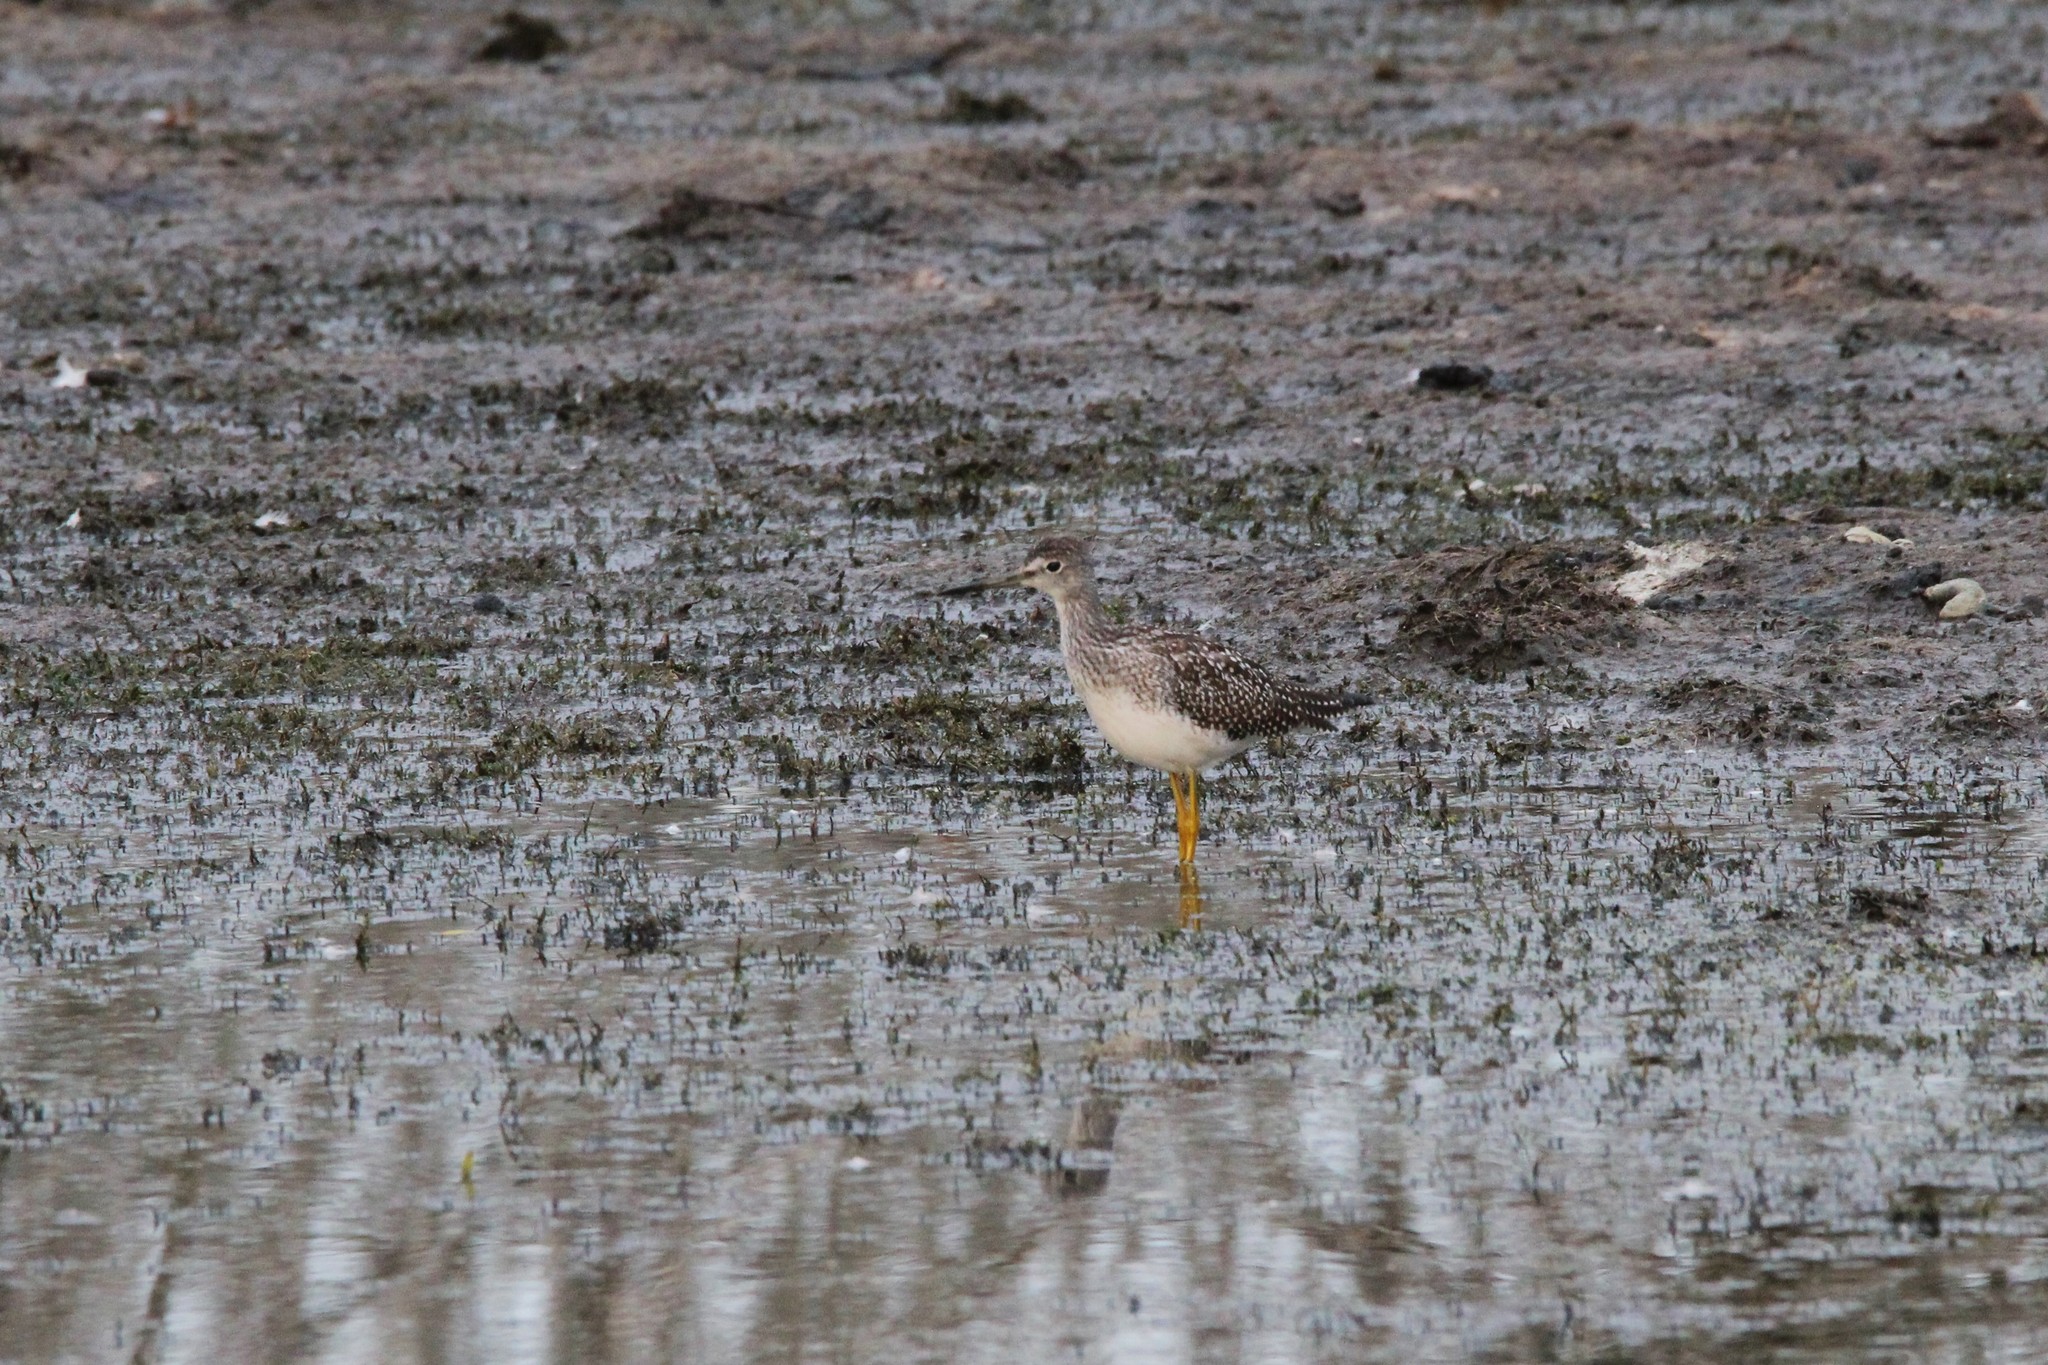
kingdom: Animalia
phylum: Chordata
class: Aves
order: Charadriiformes
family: Scolopacidae
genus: Tringa
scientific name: Tringa melanoleuca
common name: Greater yellowlegs
